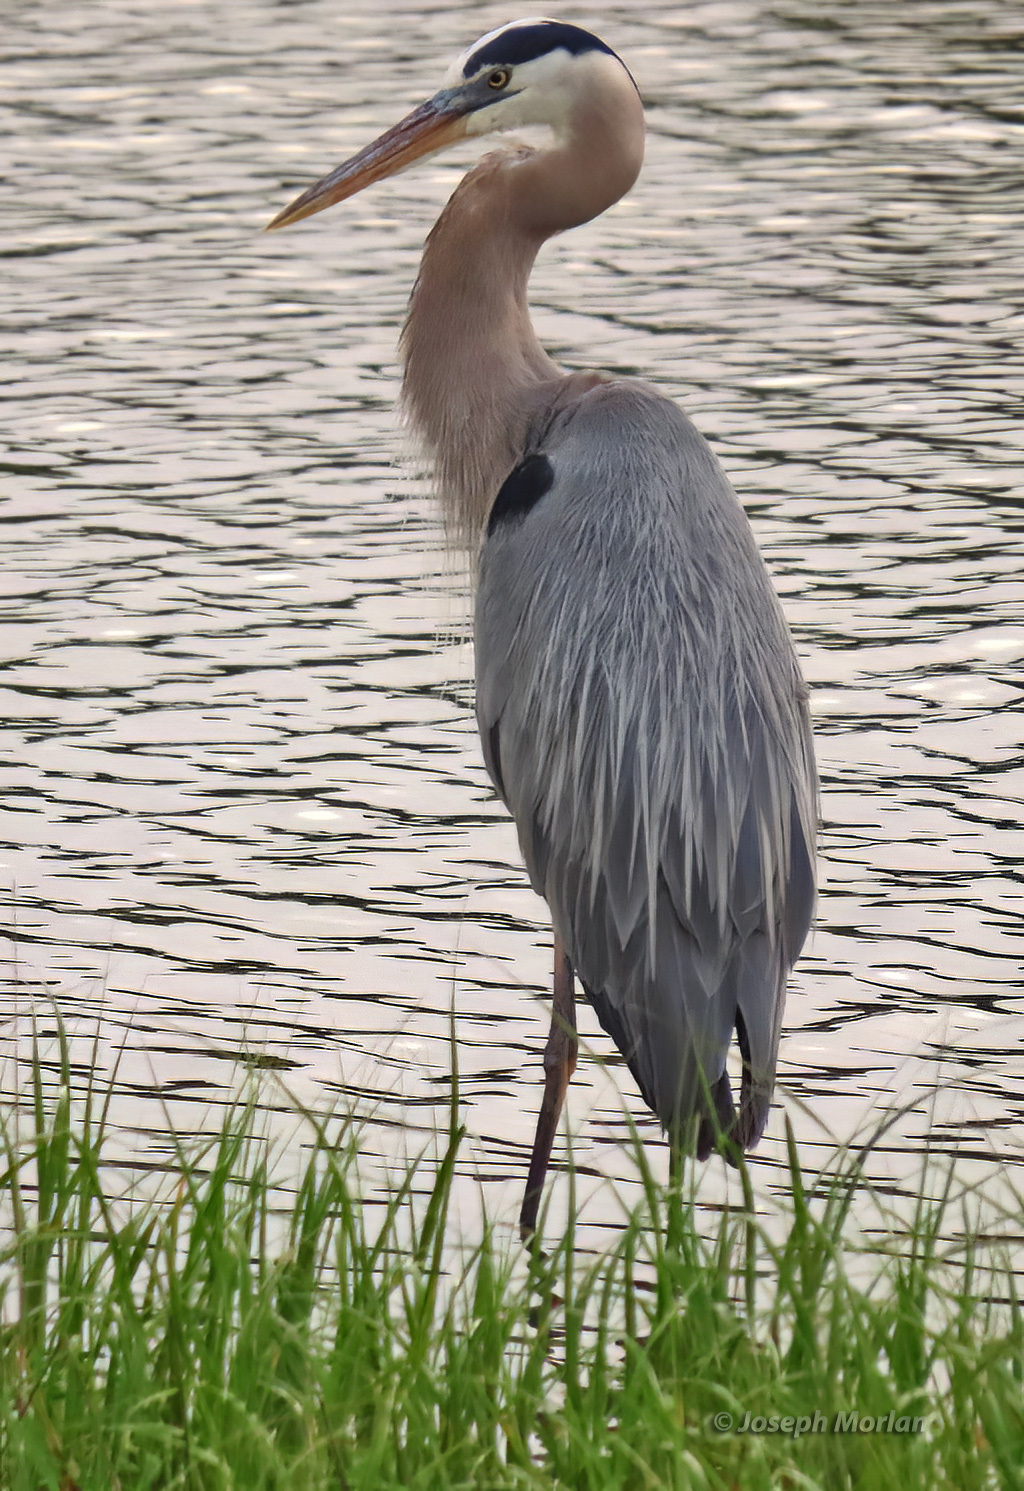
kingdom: Animalia
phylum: Chordata
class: Aves
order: Pelecaniformes
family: Ardeidae
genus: Ardea
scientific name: Ardea herodias
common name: Great blue heron
